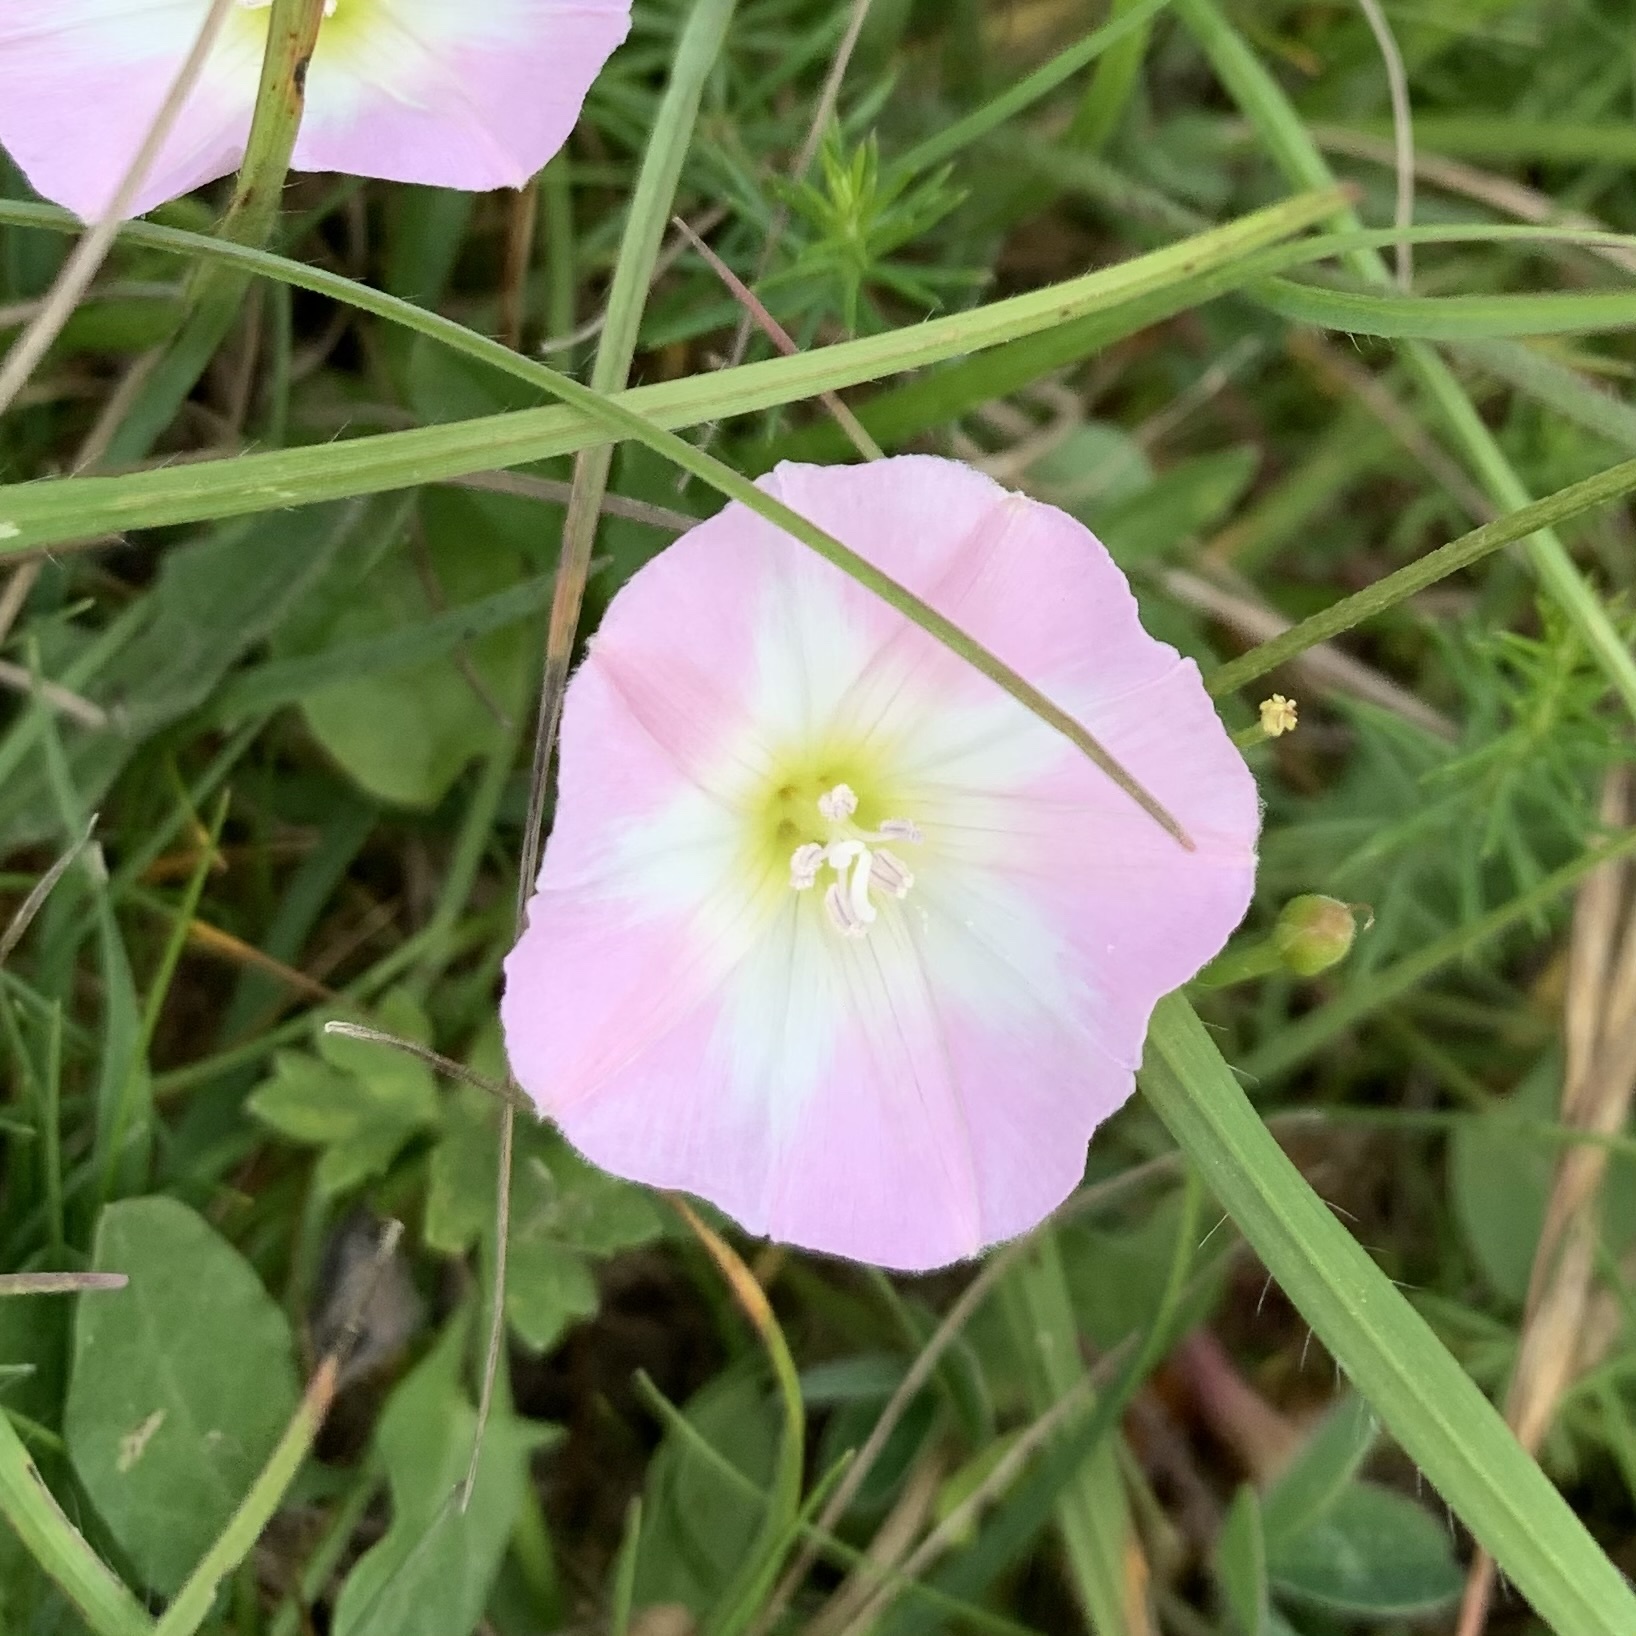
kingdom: Plantae
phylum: Tracheophyta
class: Magnoliopsida
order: Solanales
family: Convolvulaceae
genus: Convolvulus
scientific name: Convolvulus arvensis
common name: Field bindweed
